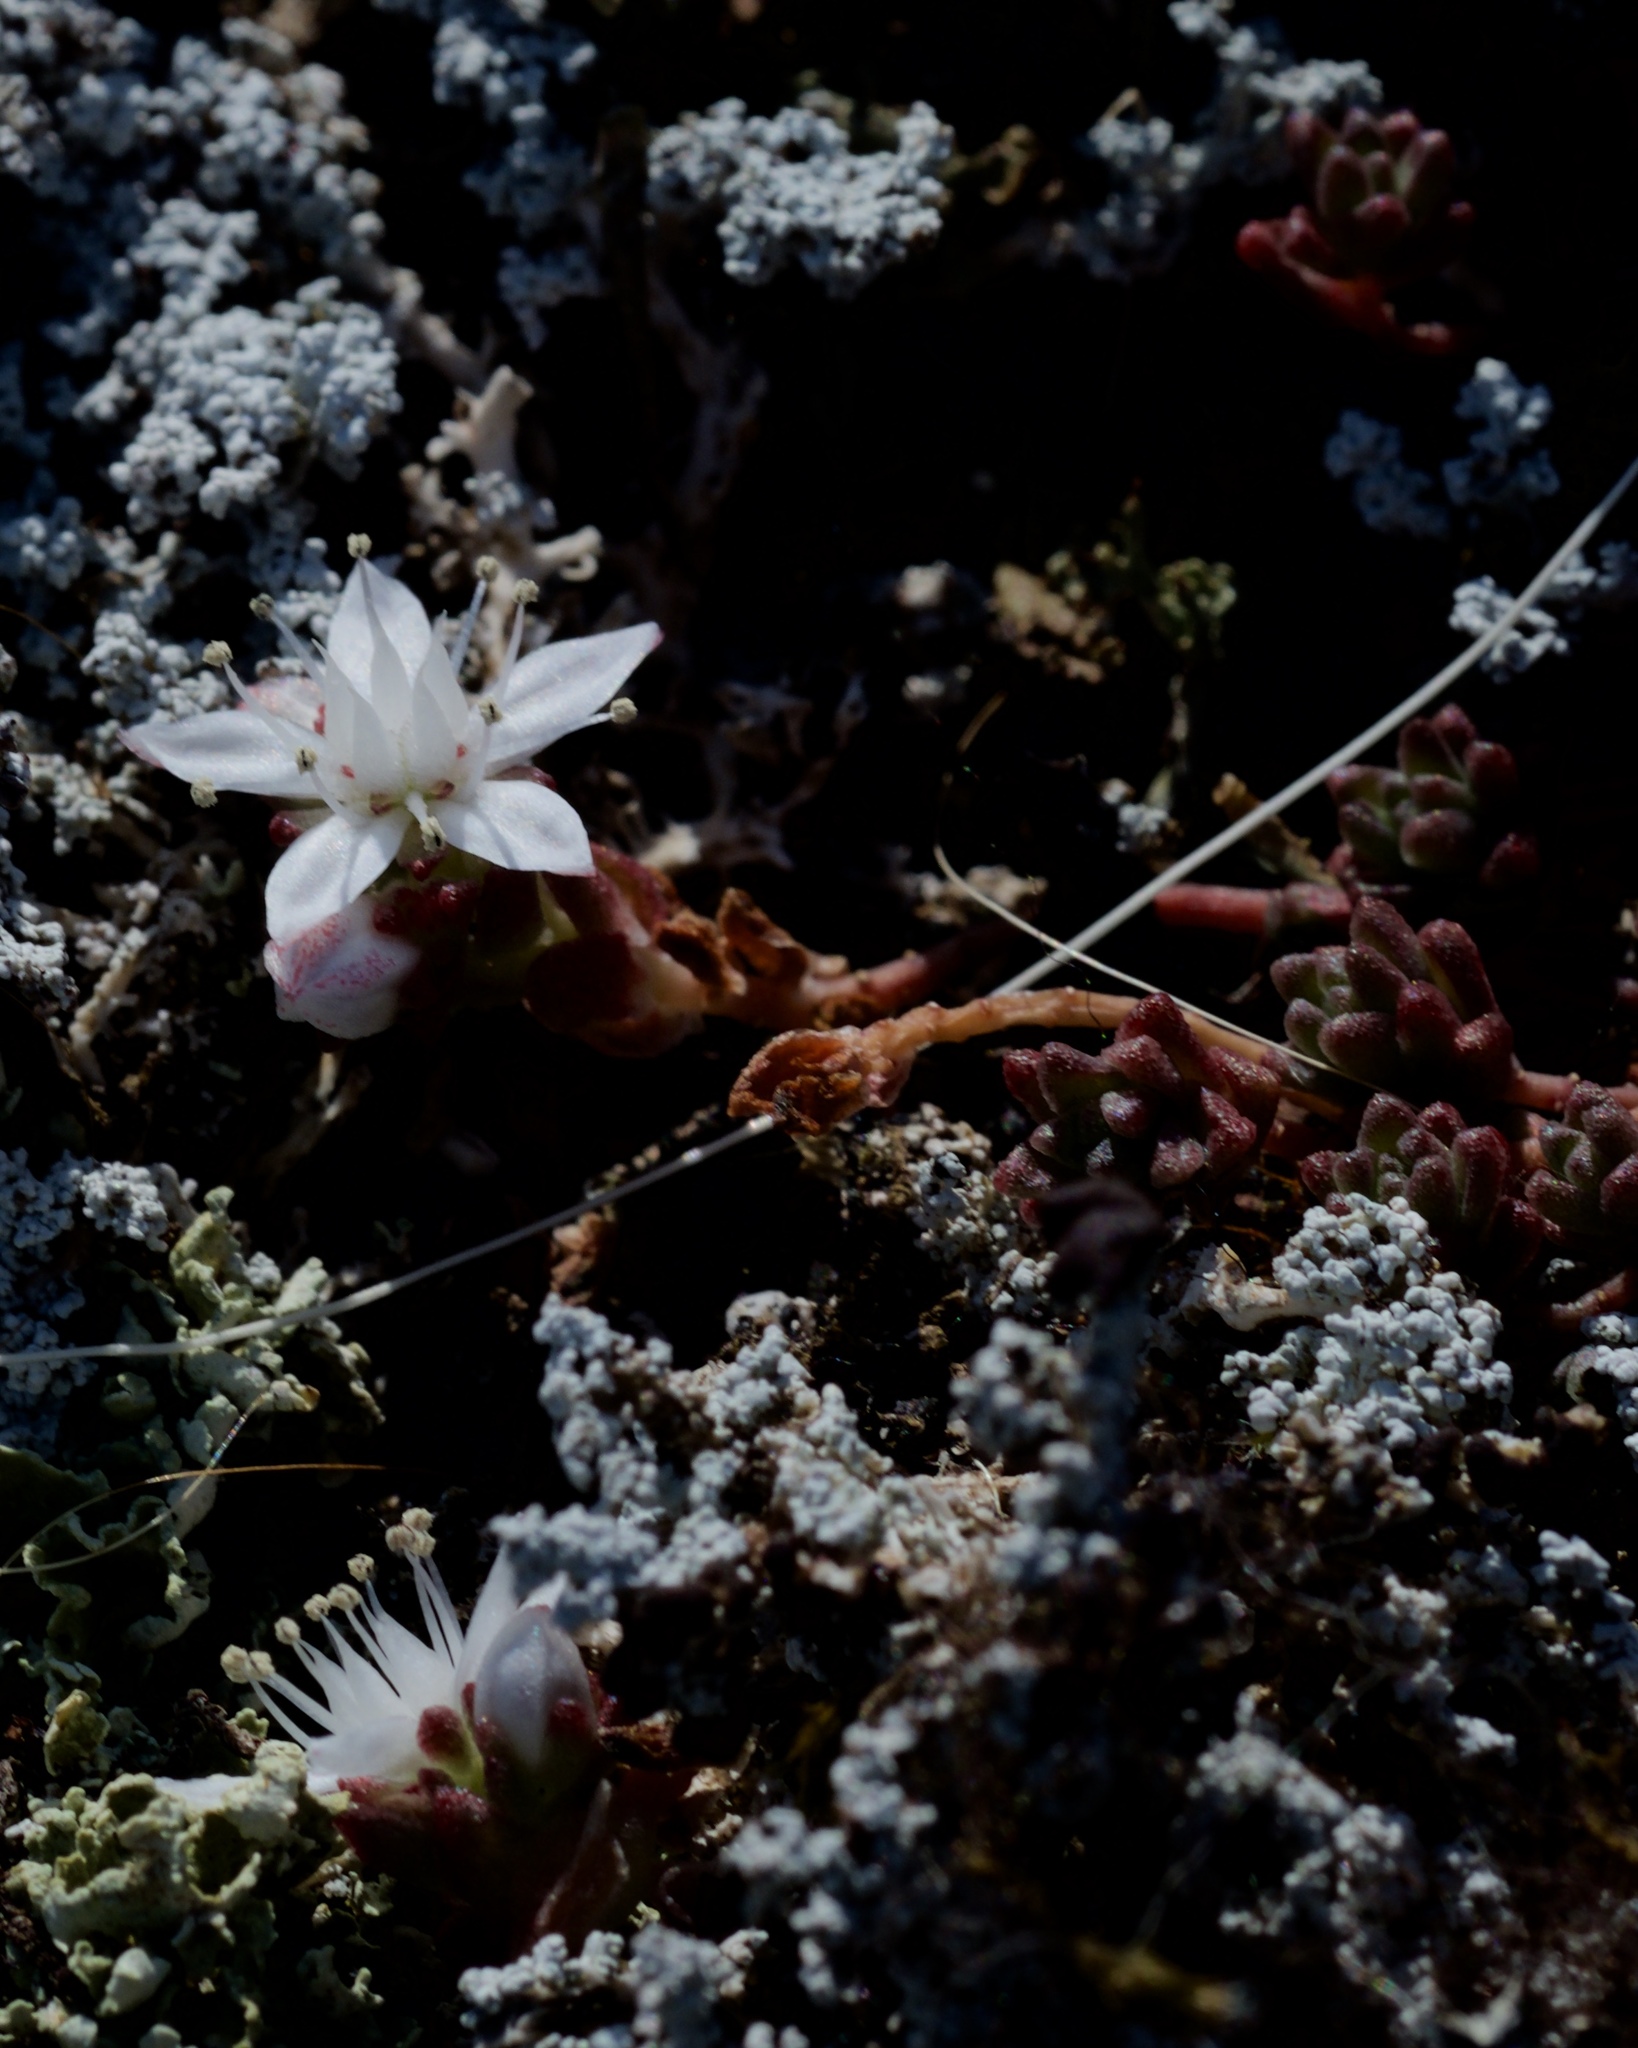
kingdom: Plantae
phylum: Tracheophyta
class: Magnoliopsida
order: Saxifragales
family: Crassulaceae
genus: Sedum
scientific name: Sedum anglicum
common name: English stonecrop
